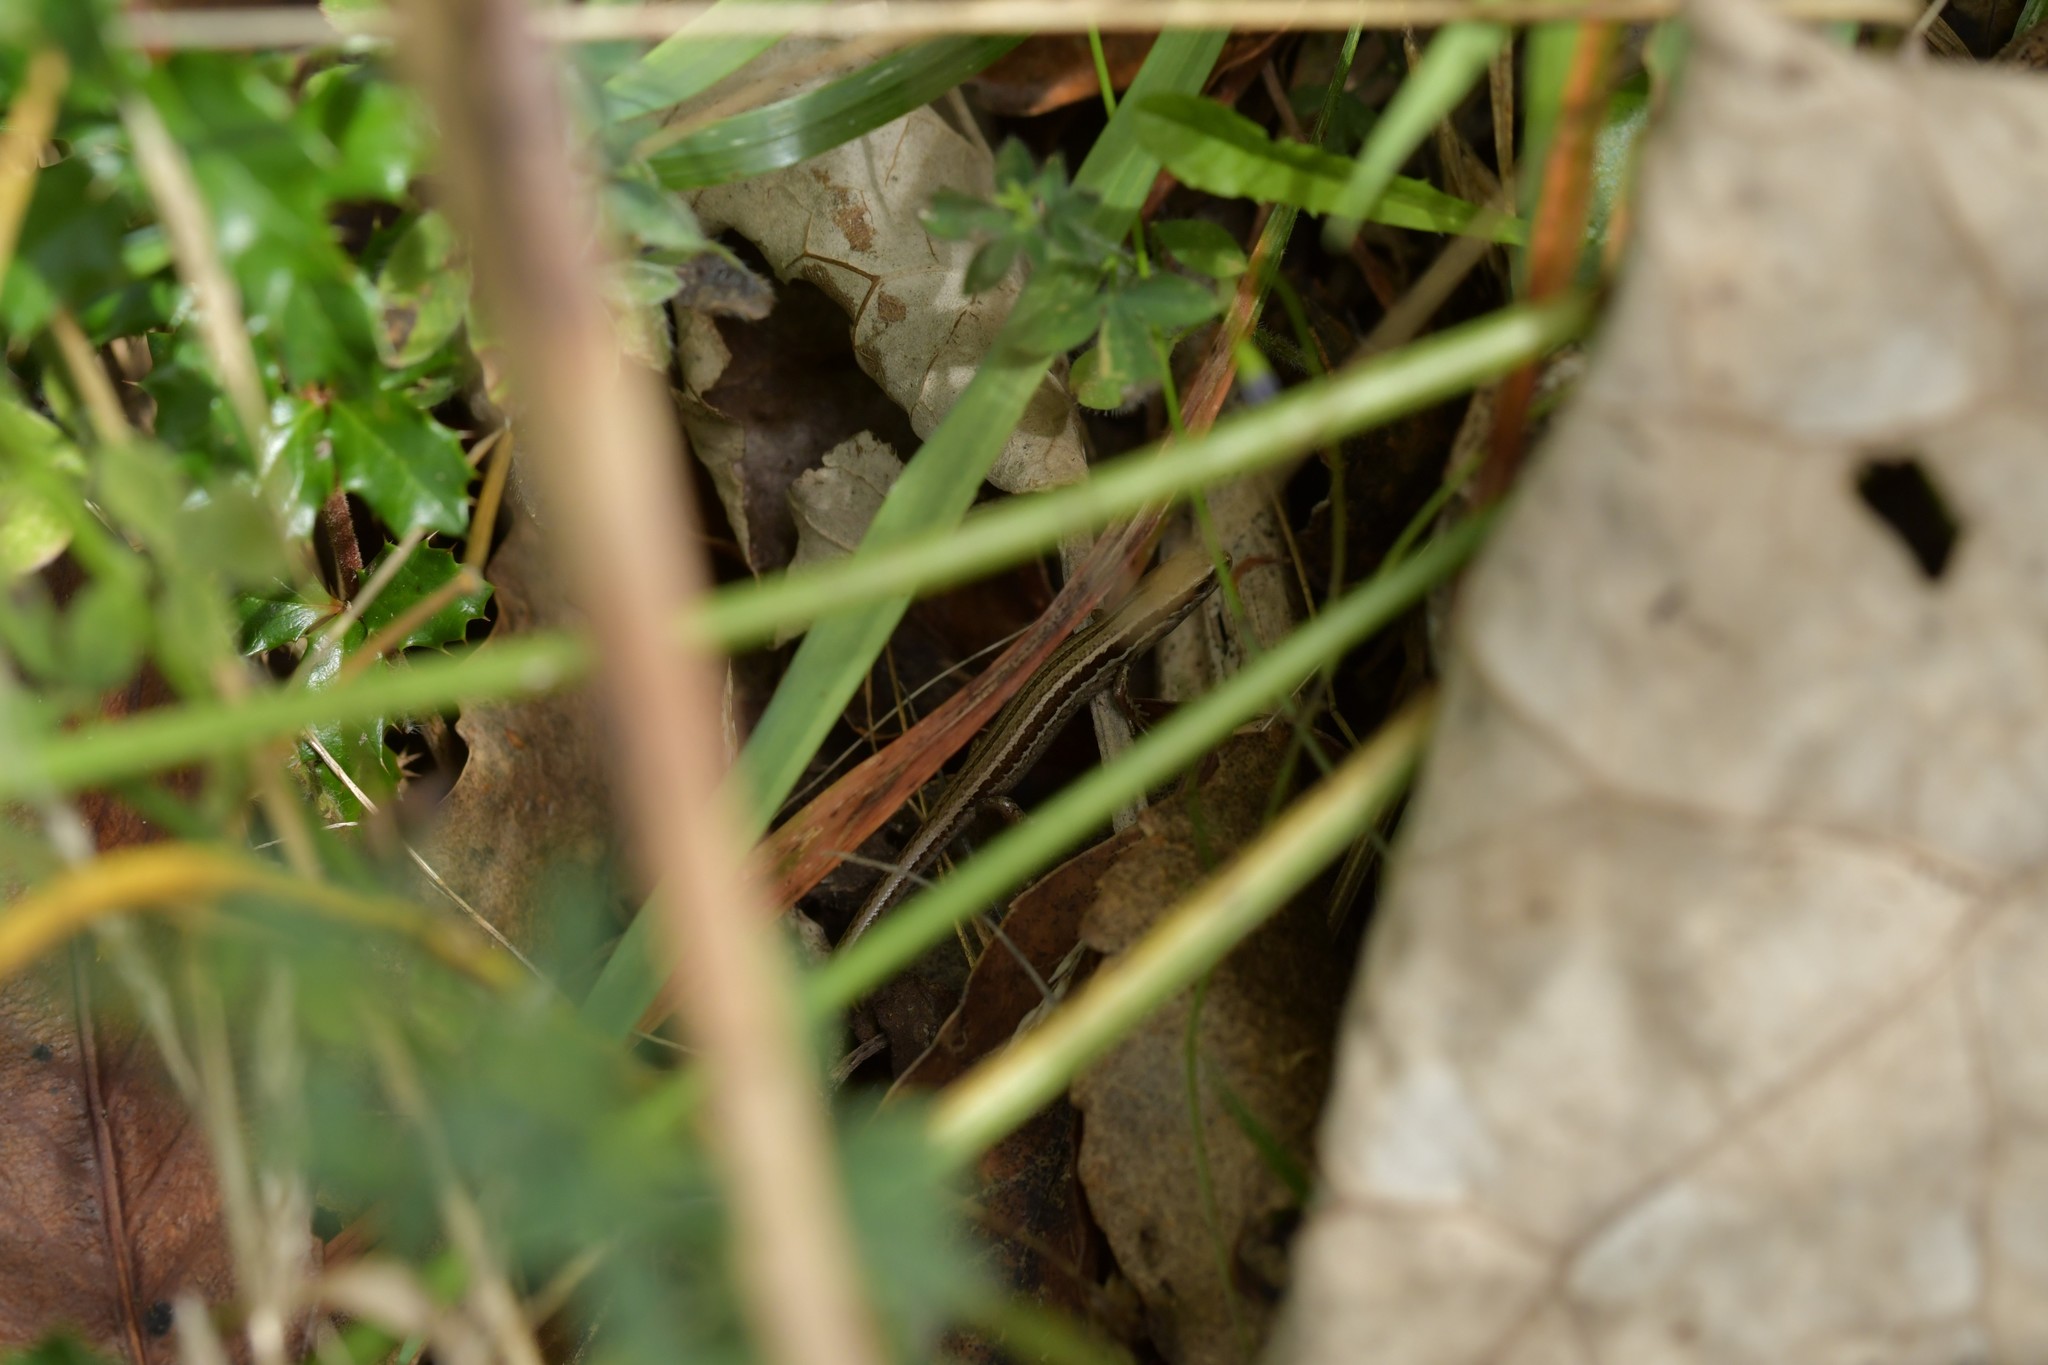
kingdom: Animalia
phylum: Chordata
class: Squamata
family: Scincidae
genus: Oligosoma
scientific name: Oligosoma polychroma
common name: Common new zealand skink
